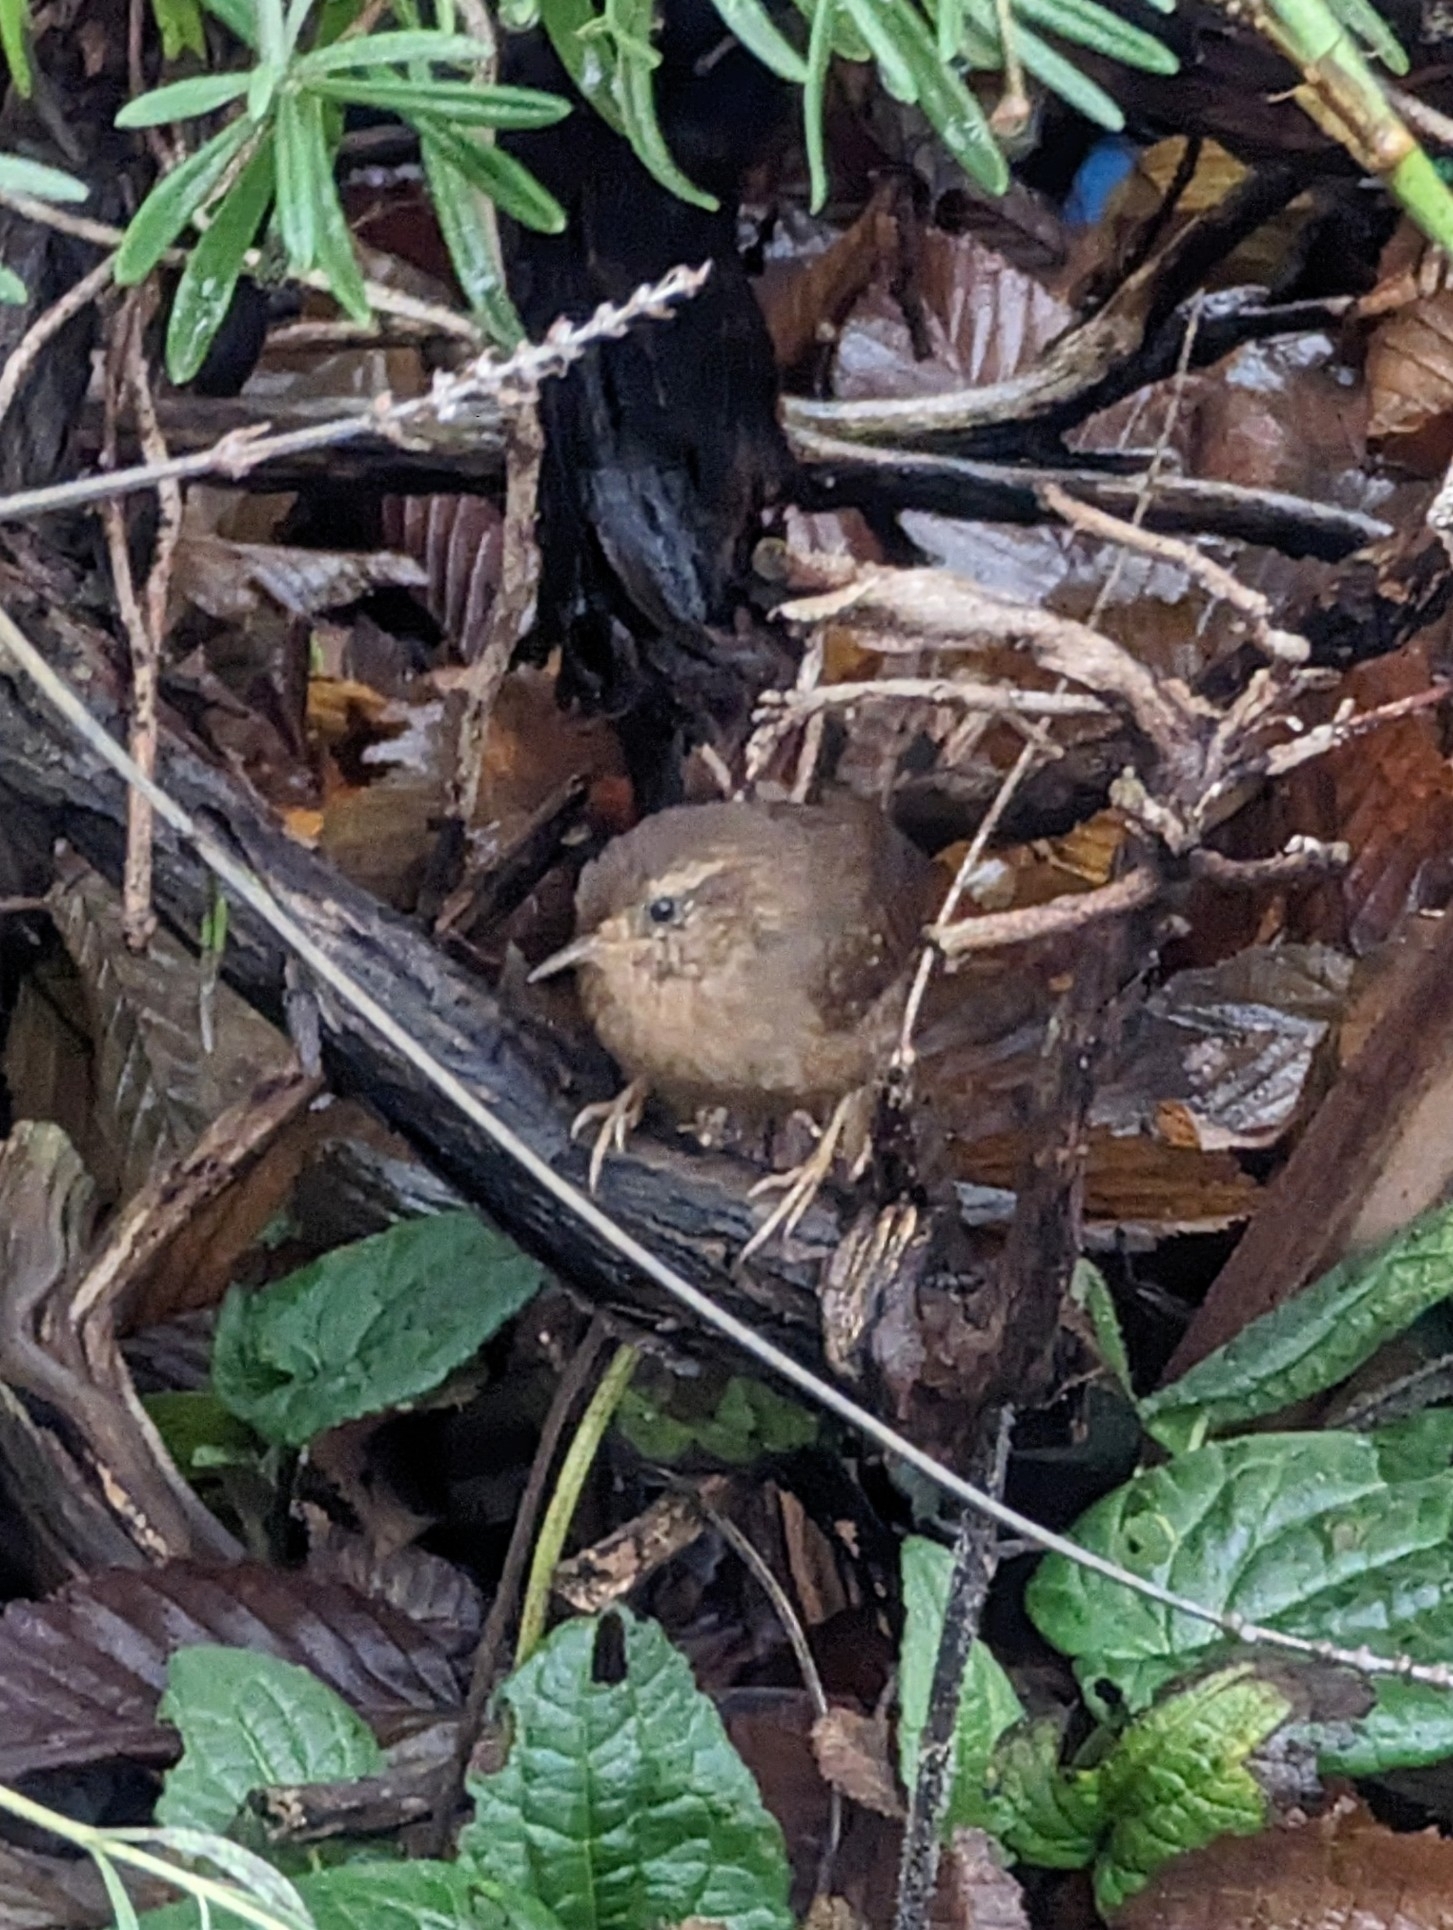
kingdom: Animalia
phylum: Chordata
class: Aves
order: Passeriformes
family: Troglodytidae
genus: Troglodytes
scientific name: Troglodytes pacificus
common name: Pacific wren
